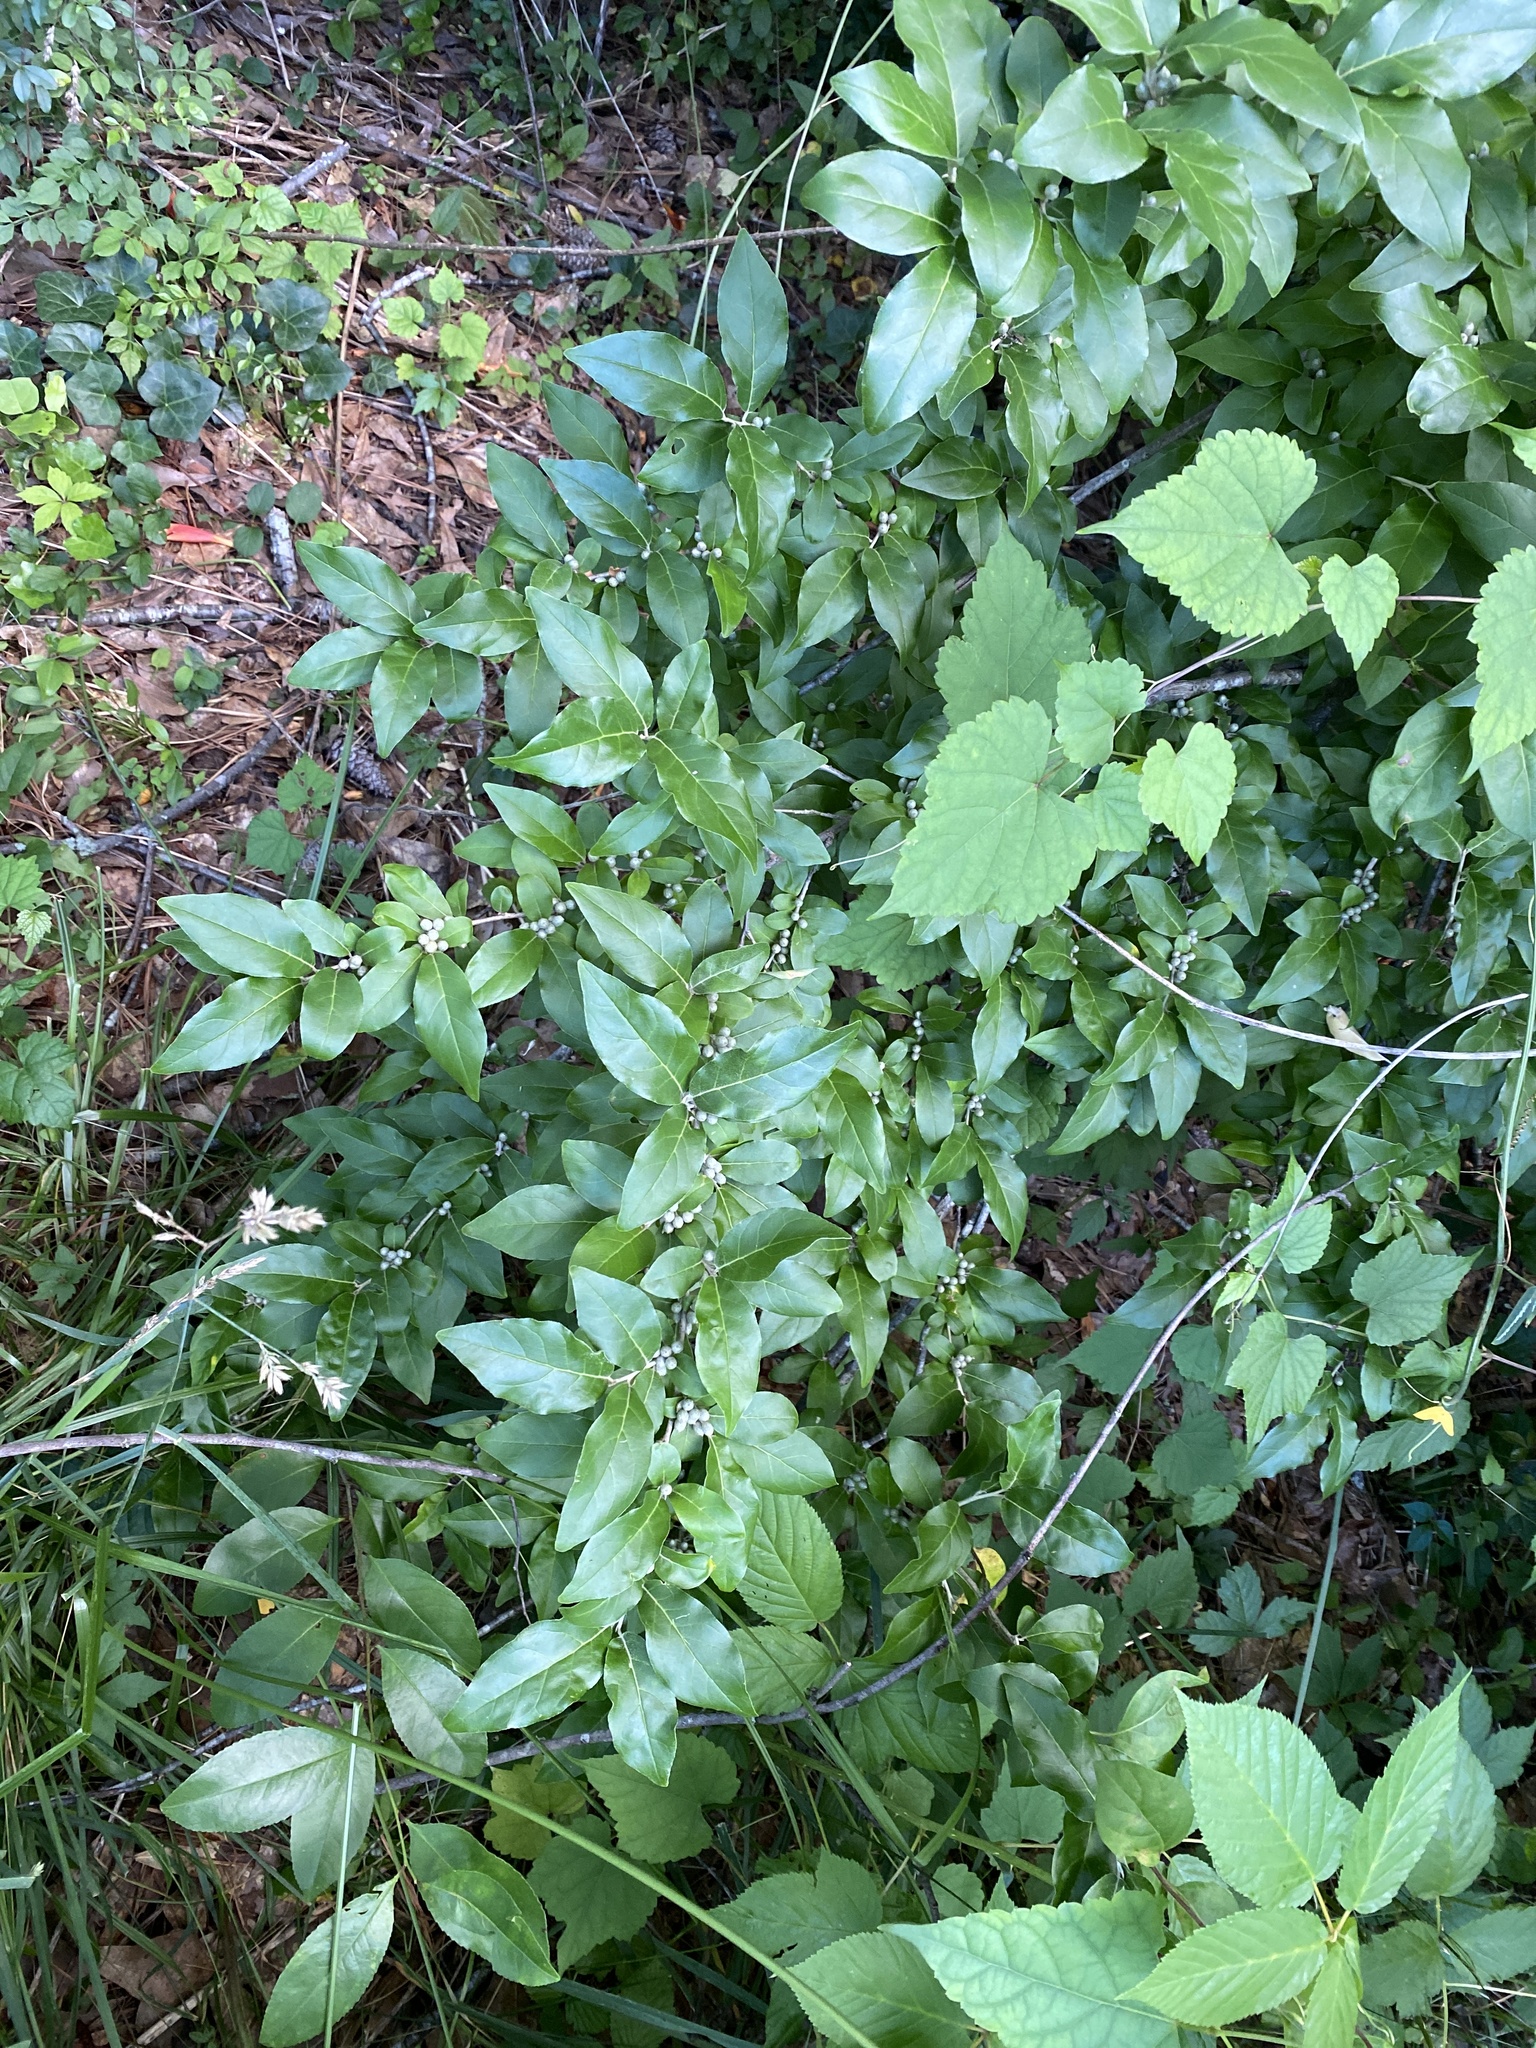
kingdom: Plantae
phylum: Tracheophyta
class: Magnoliopsida
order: Rosales
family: Elaeagnaceae
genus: Elaeagnus
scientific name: Elaeagnus umbellata
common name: Autumn olive
